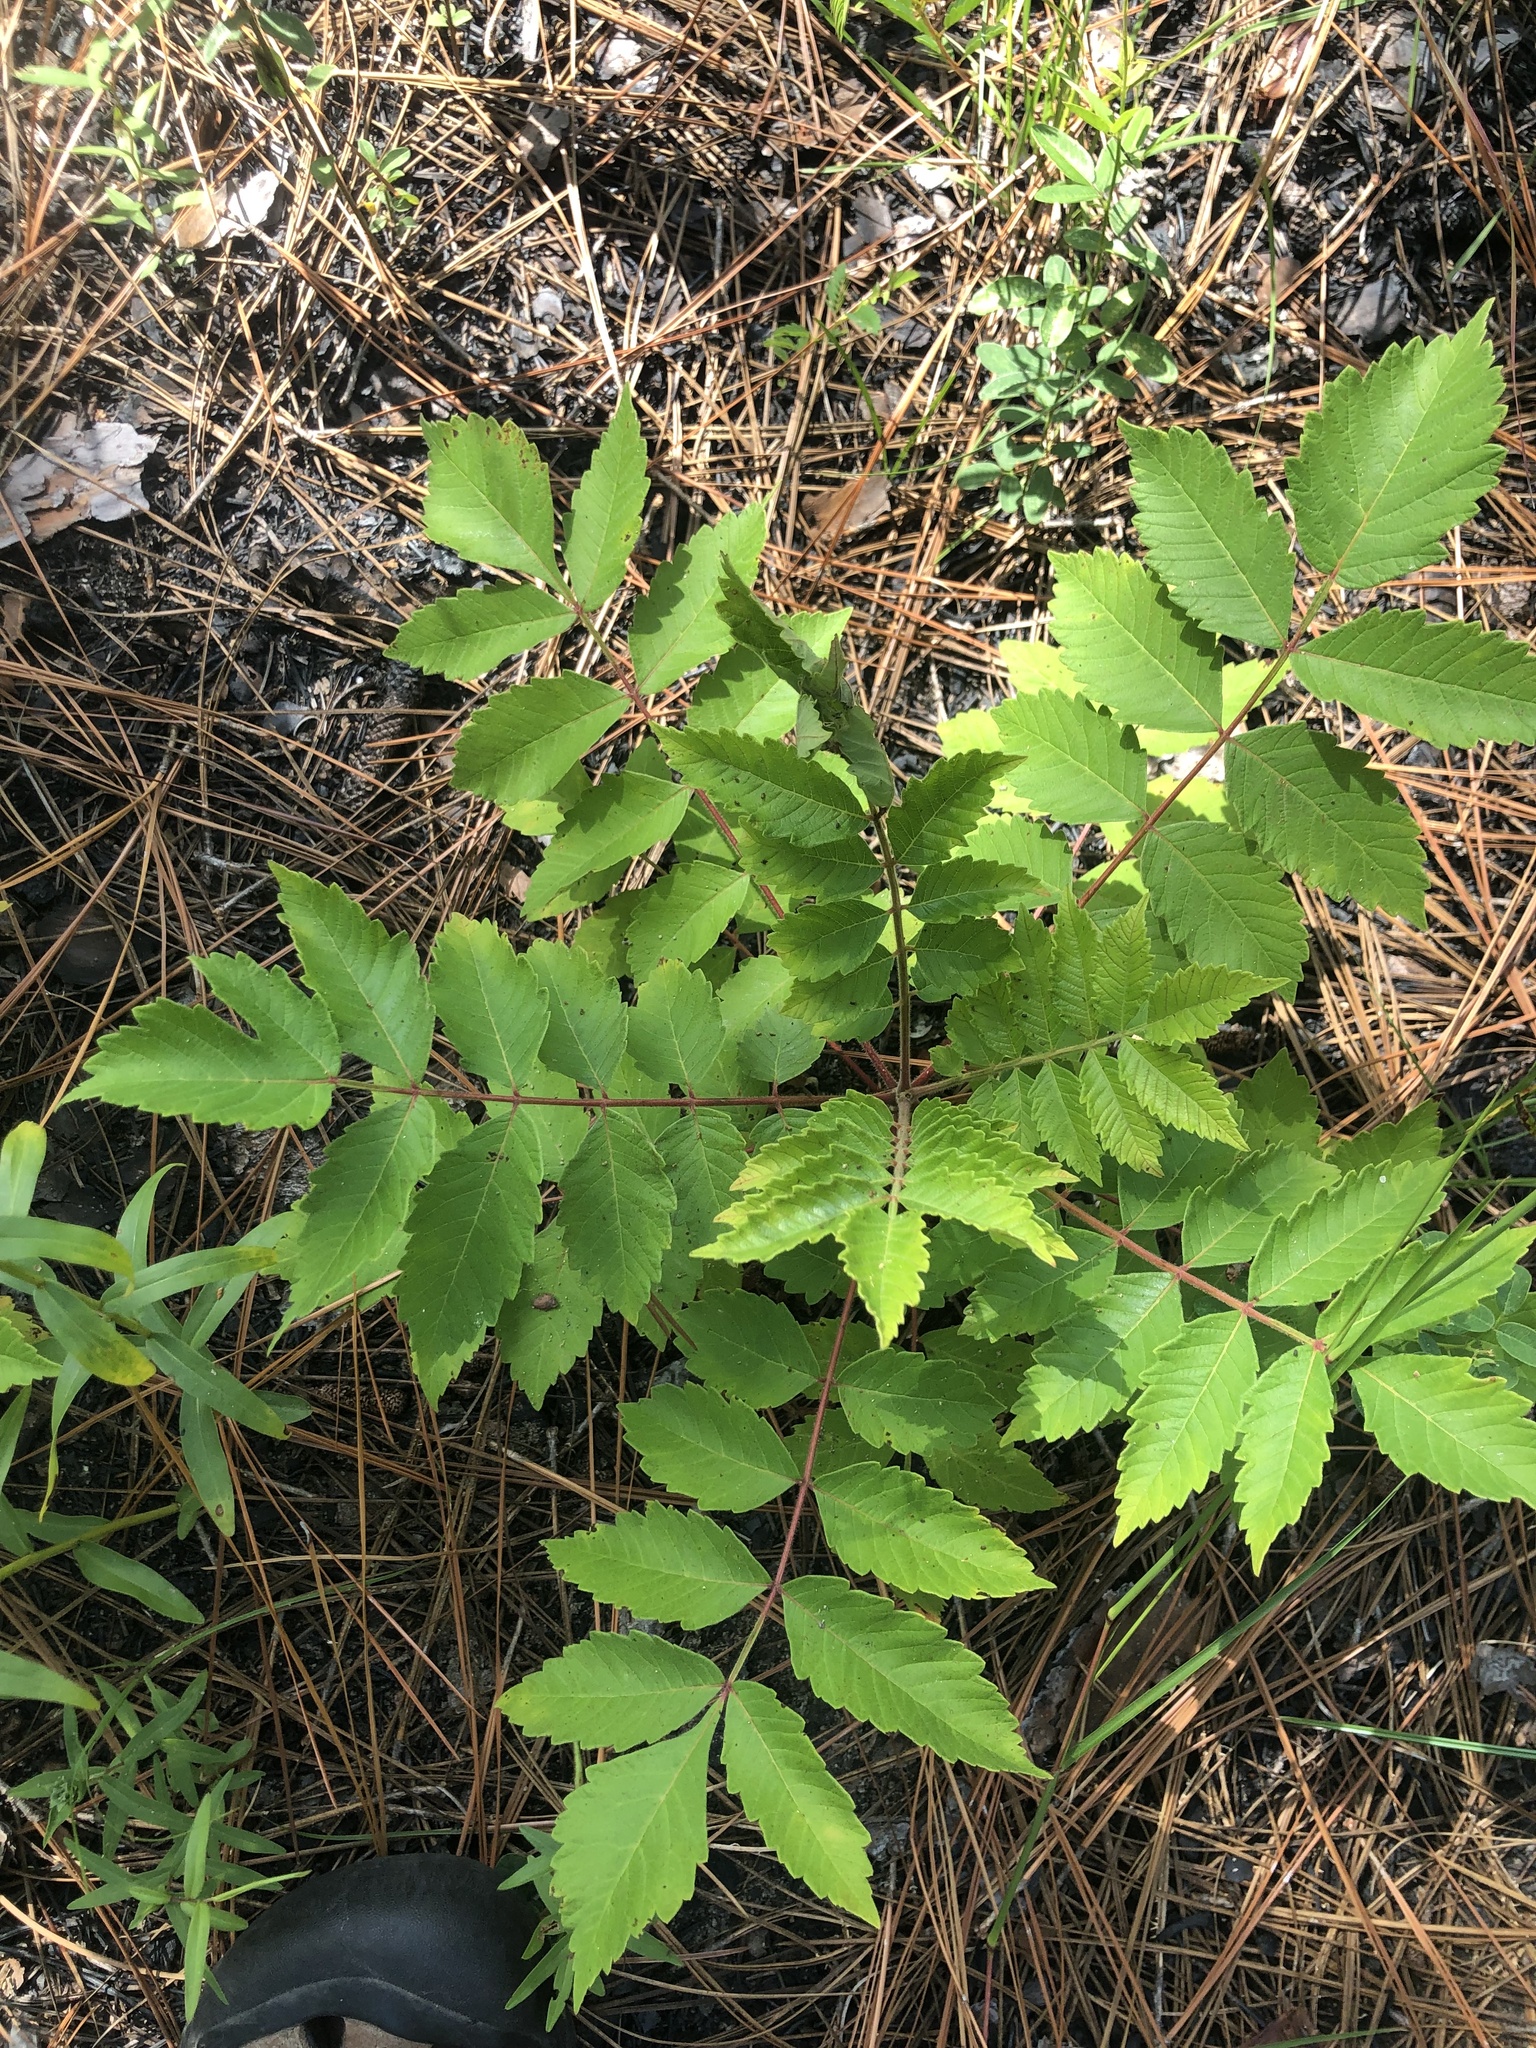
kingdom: Plantae
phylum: Tracheophyta
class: Magnoliopsida
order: Sapindales
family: Anacardiaceae
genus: Rhus
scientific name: Rhus michauxii
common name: Michaux's sumac
